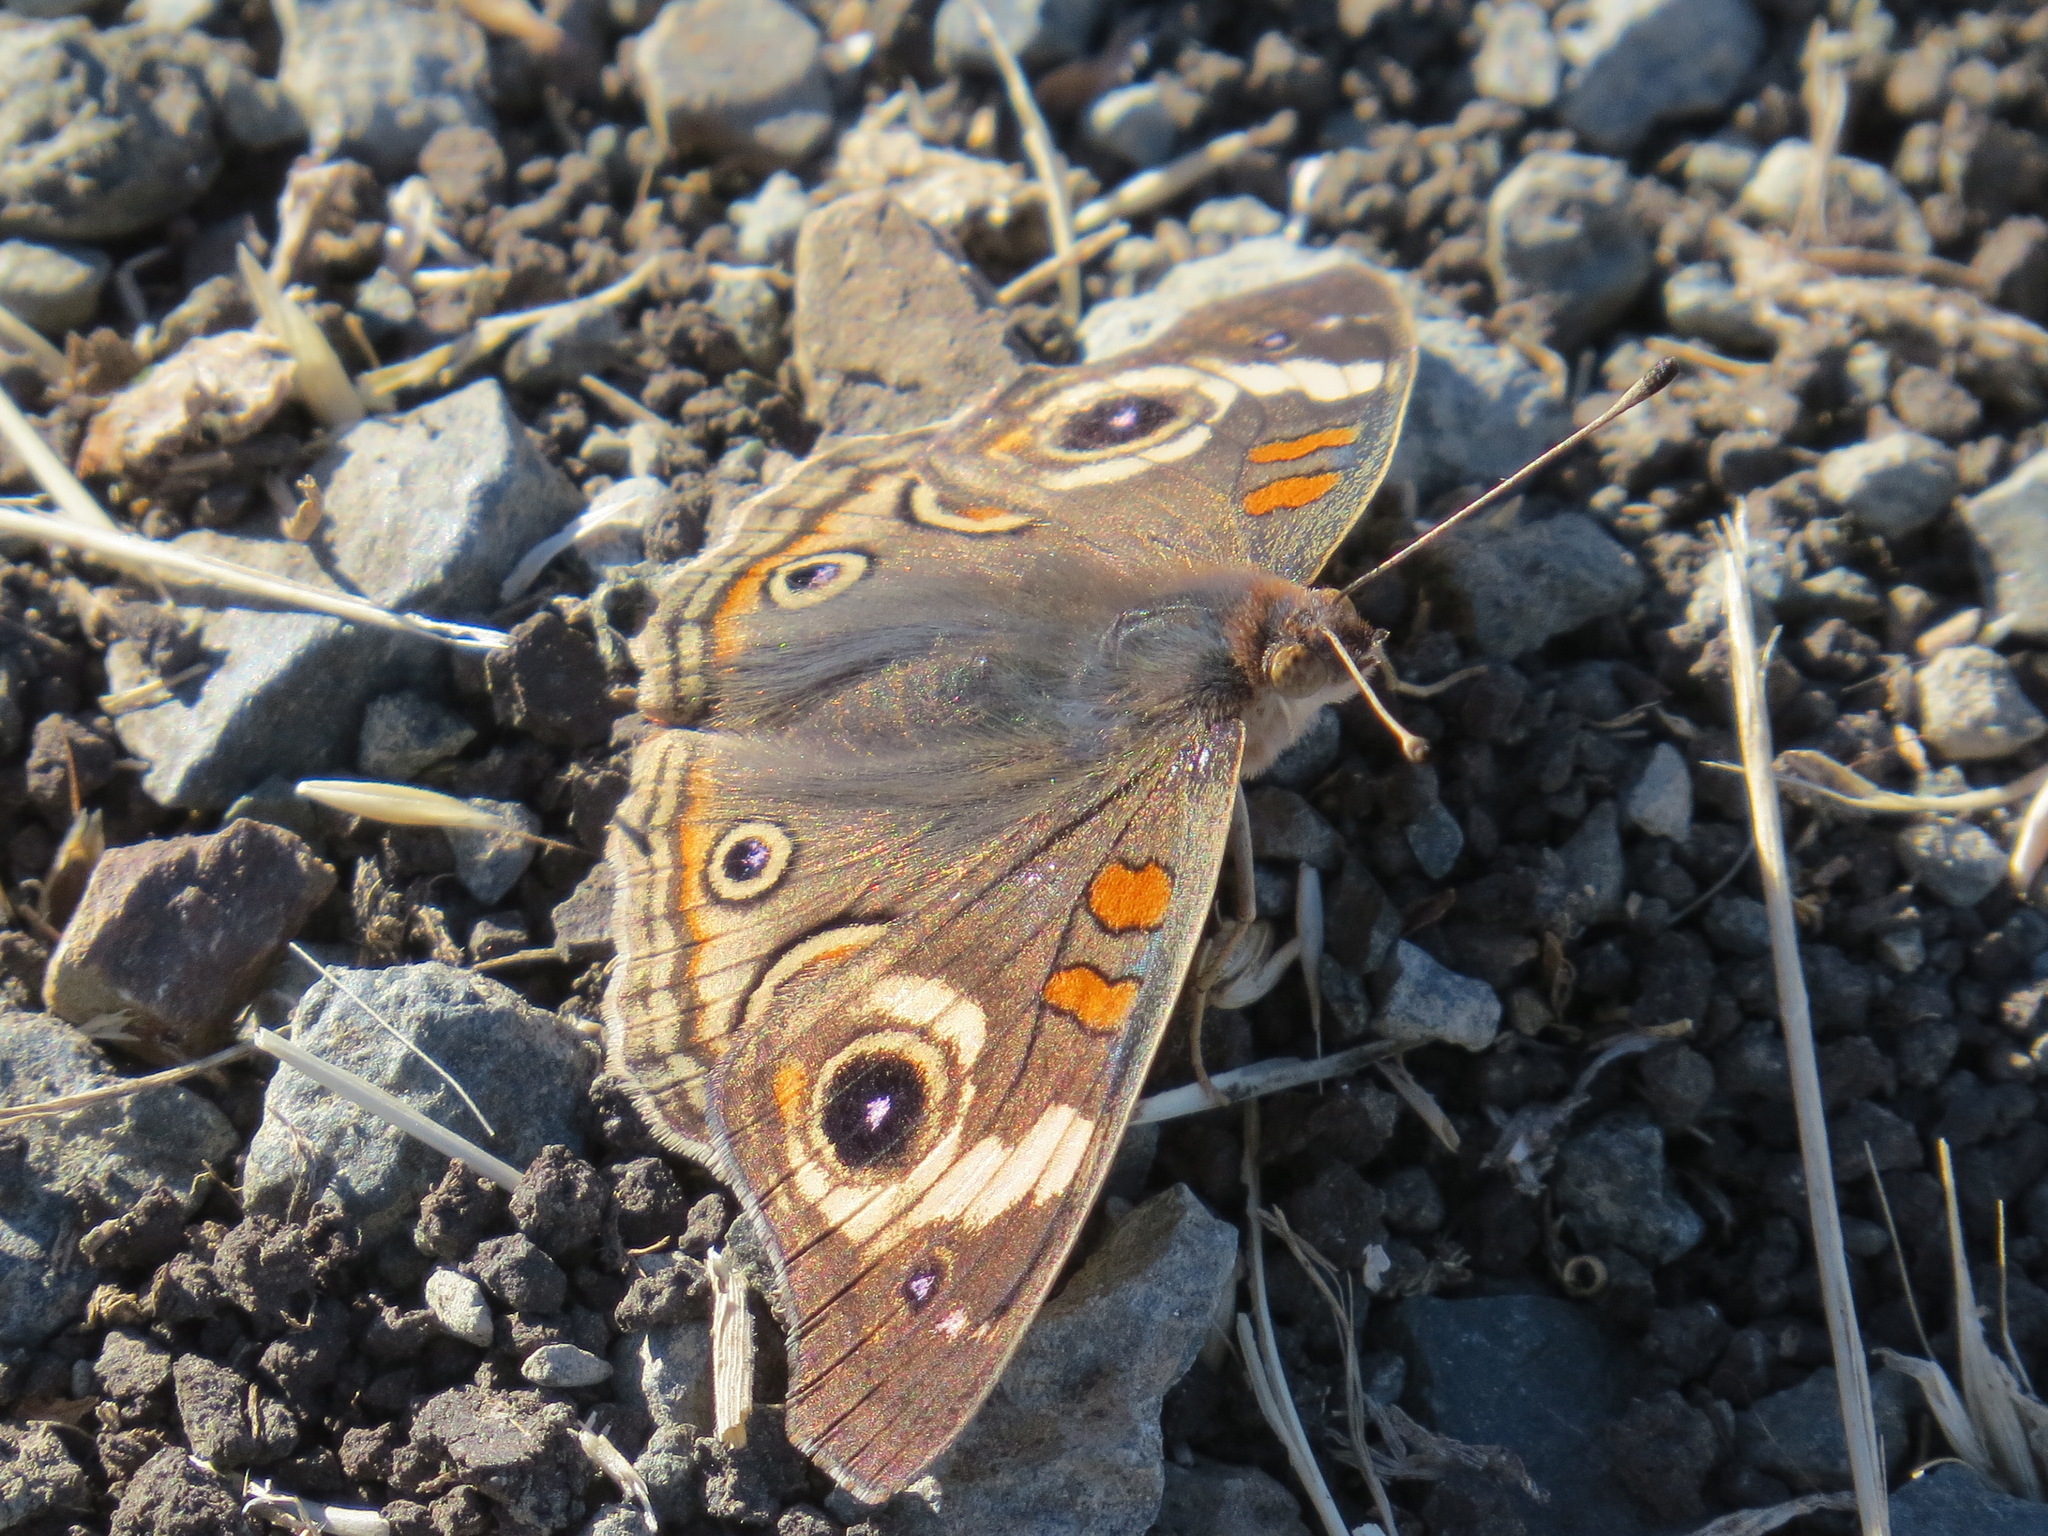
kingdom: Animalia
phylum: Arthropoda
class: Insecta
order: Lepidoptera
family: Nymphalidae
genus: Junonia
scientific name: Junonia grisea
